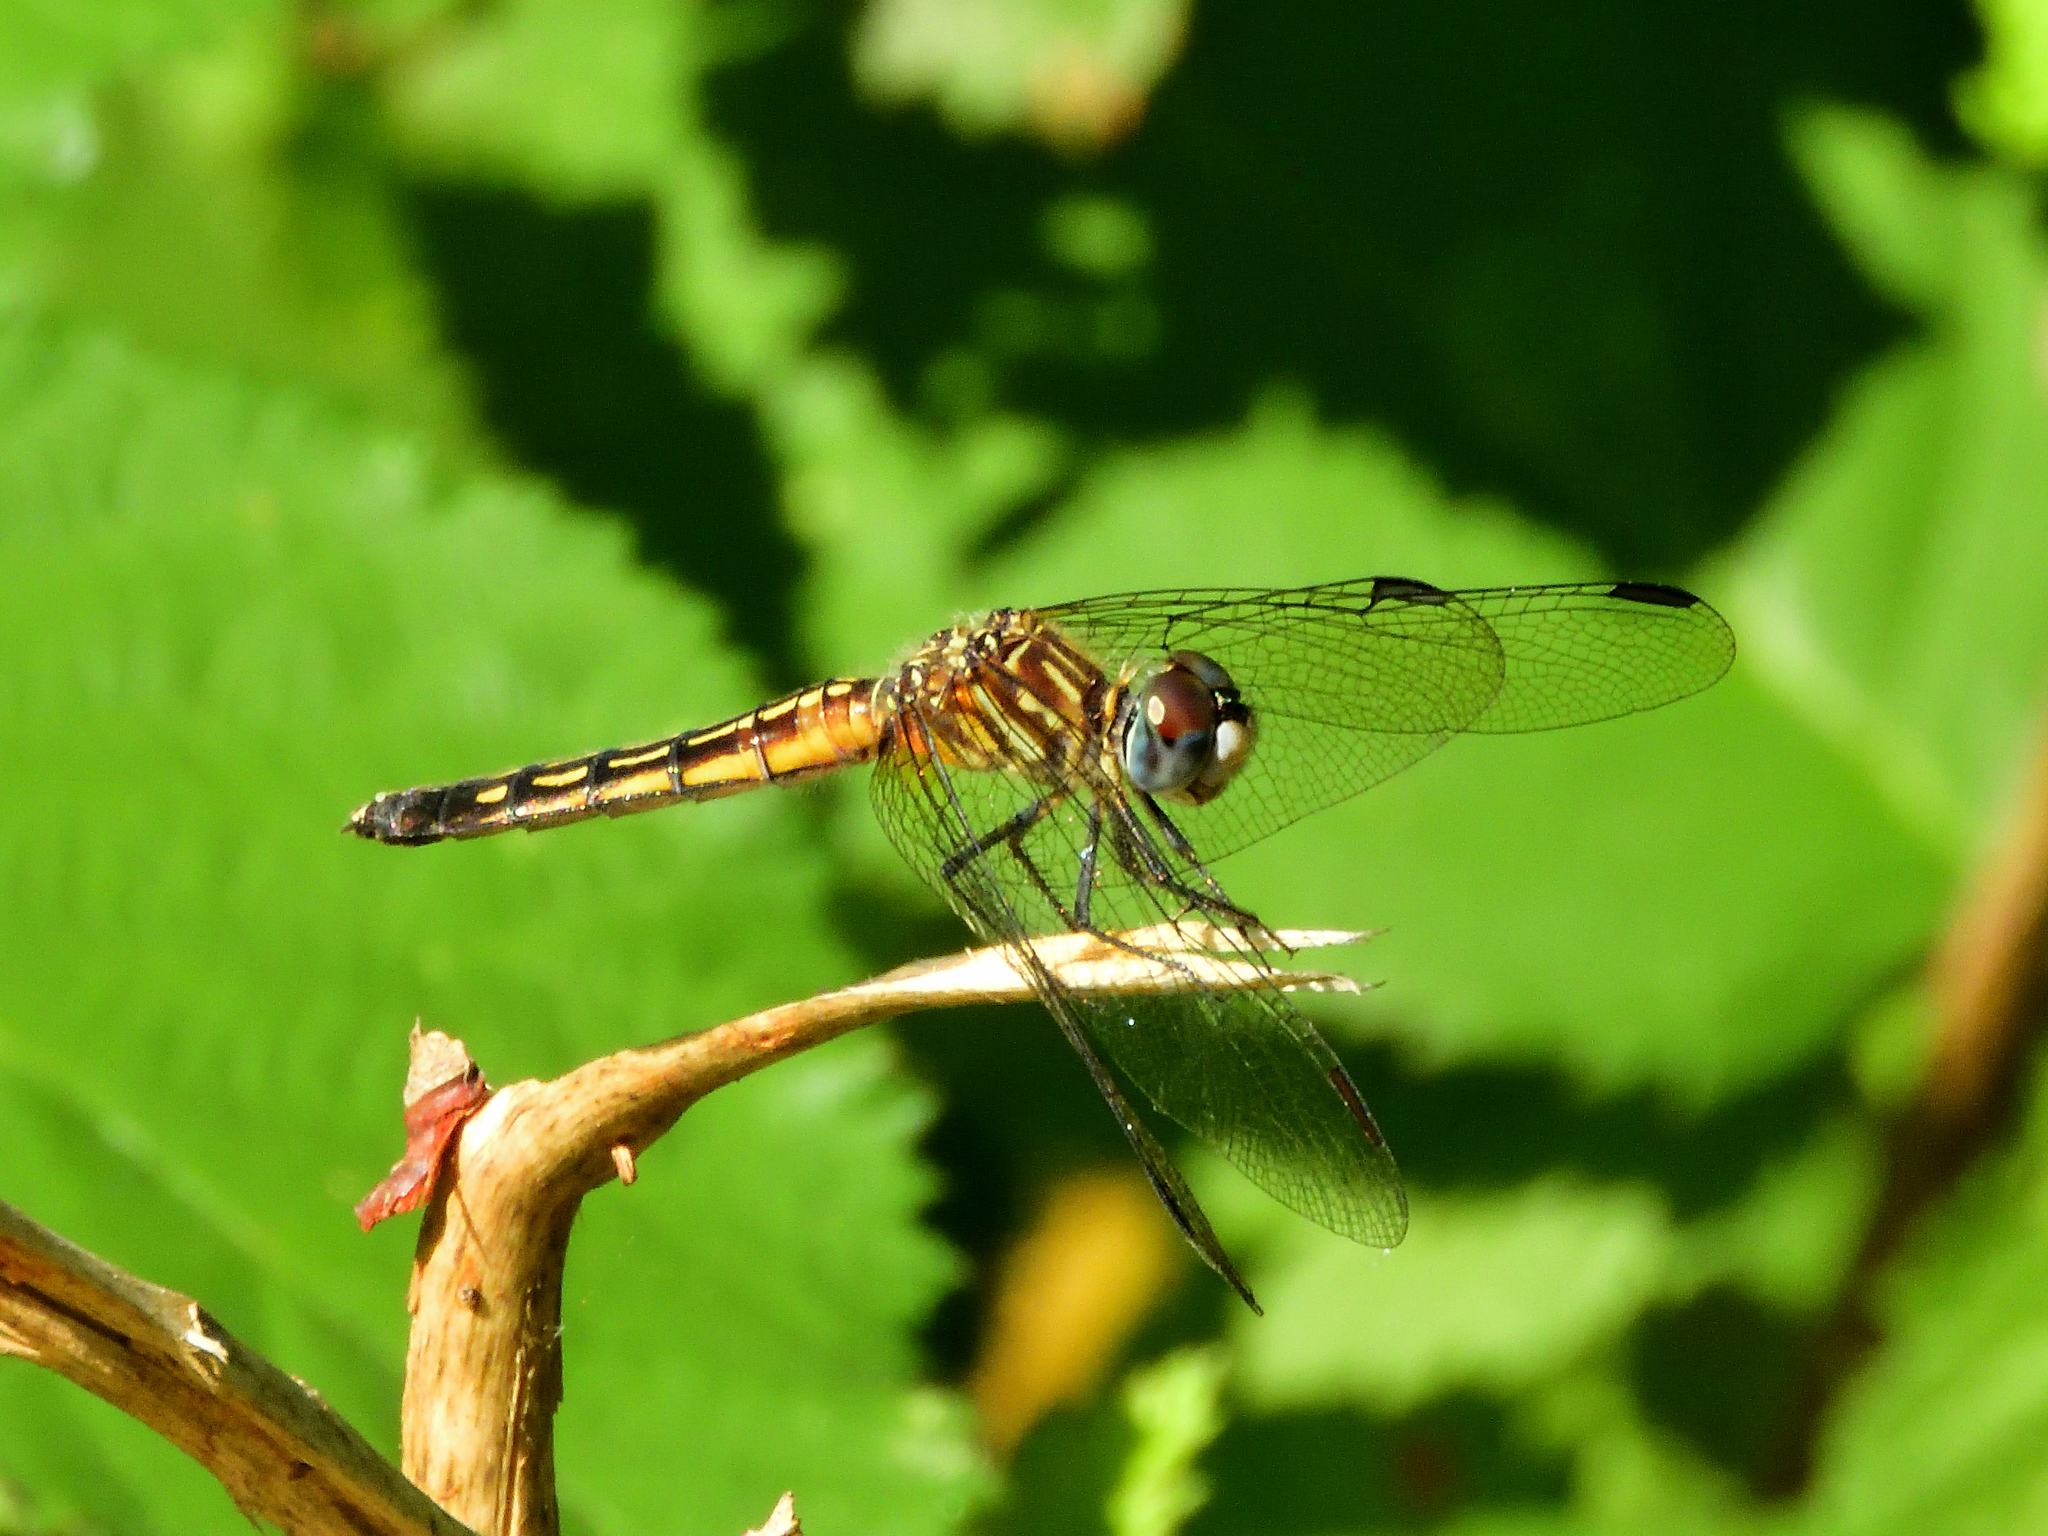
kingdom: Animalia
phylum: Arthropoda
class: Insecta
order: Odonata
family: Libellulidae
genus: Pachydiplax
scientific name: Pachydiplax longipennis
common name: Blue dasher
